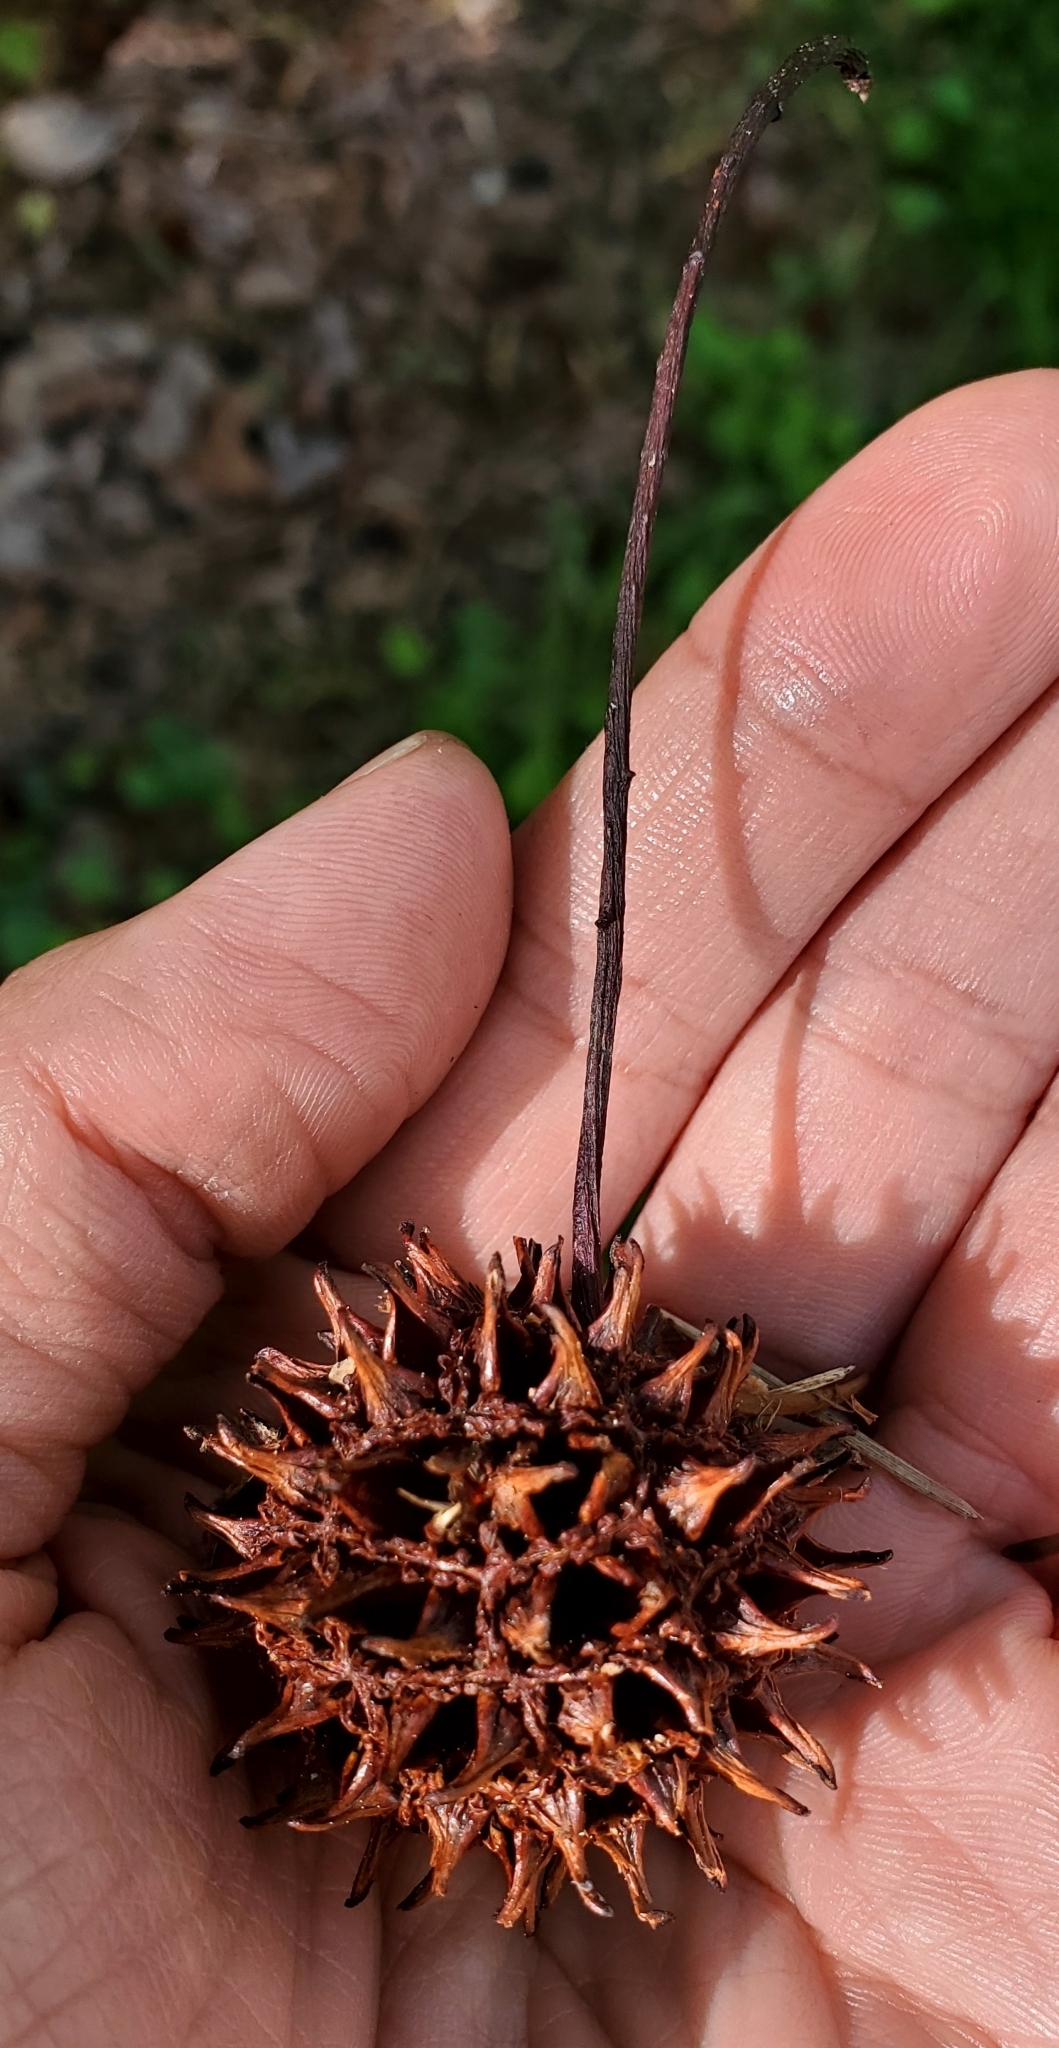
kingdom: Plantae
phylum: Tracheophyta
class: Magnoliopsida
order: Saxifragales
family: Altingiaceae
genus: Liquidambar
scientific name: Liquidambar styraciflua
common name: Sweet gum
